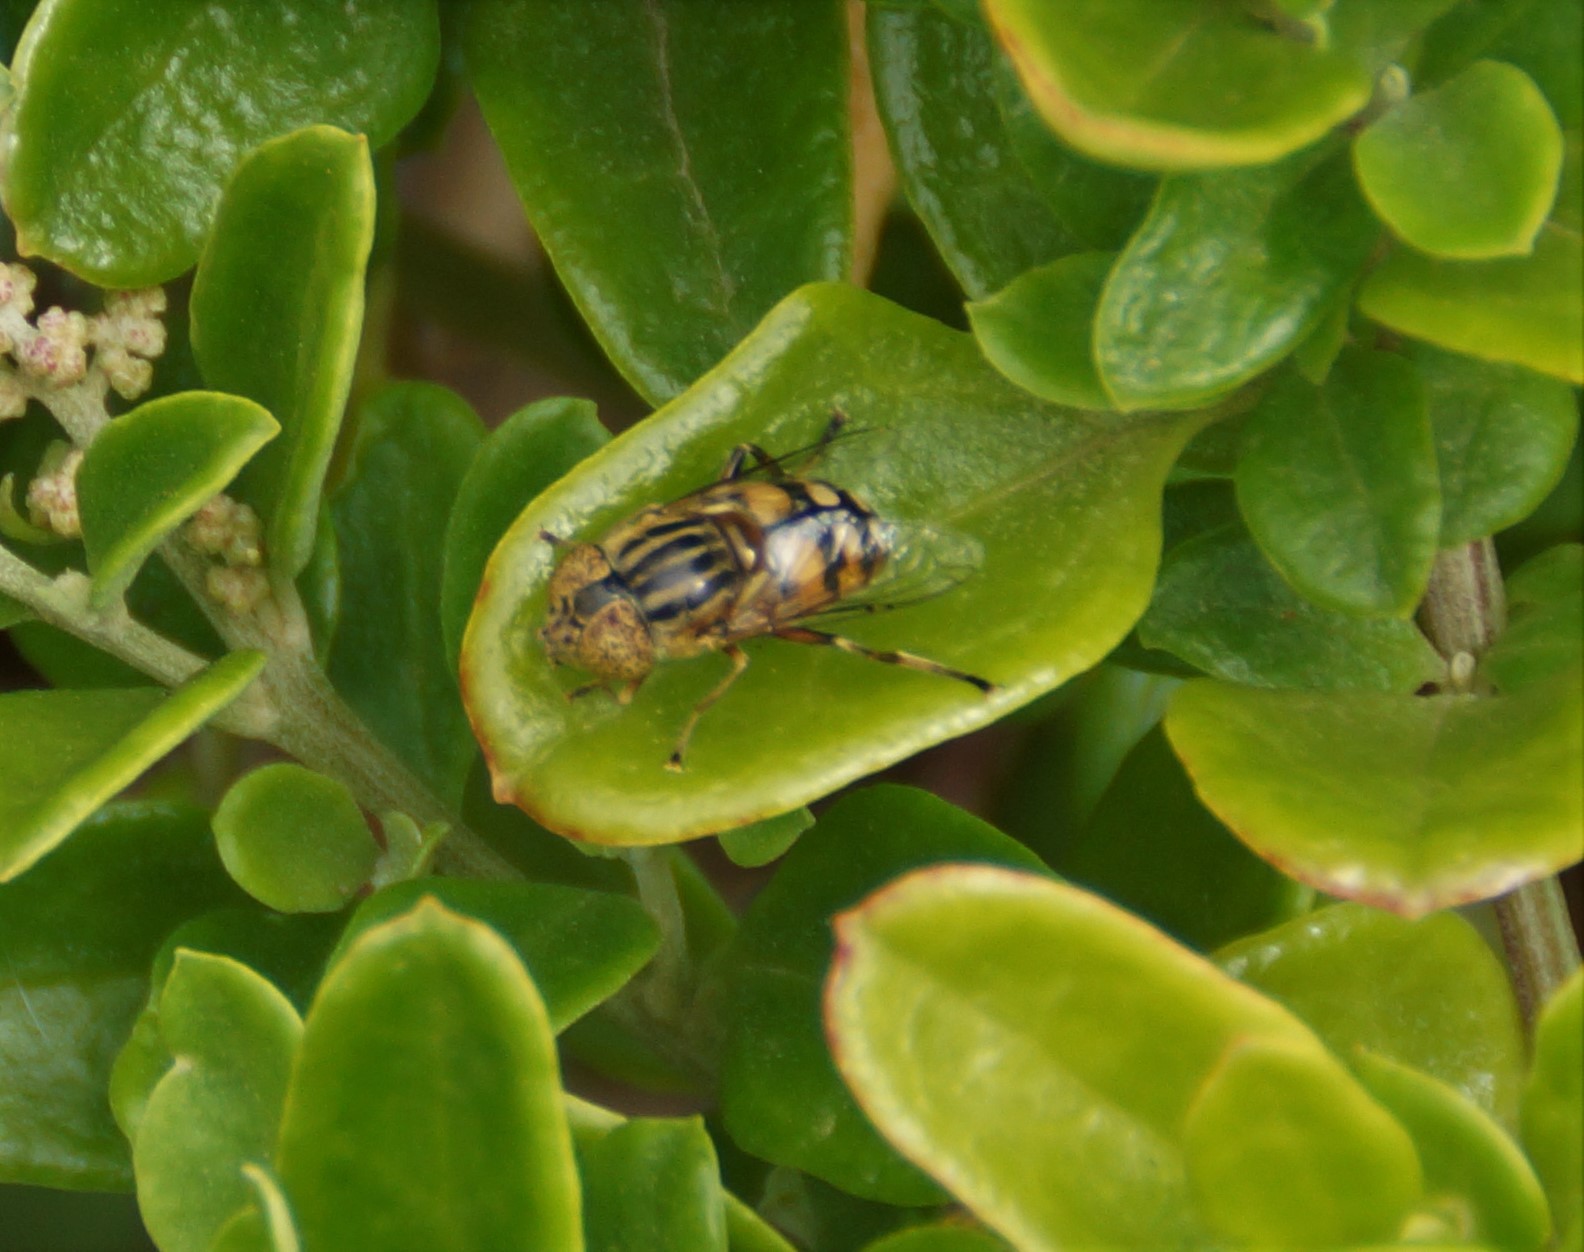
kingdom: Animalia
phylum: Arthropoda
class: Insecta
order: Diptera
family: Syrphidae
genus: Eristalinus
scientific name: Eristalinus punctulatus
